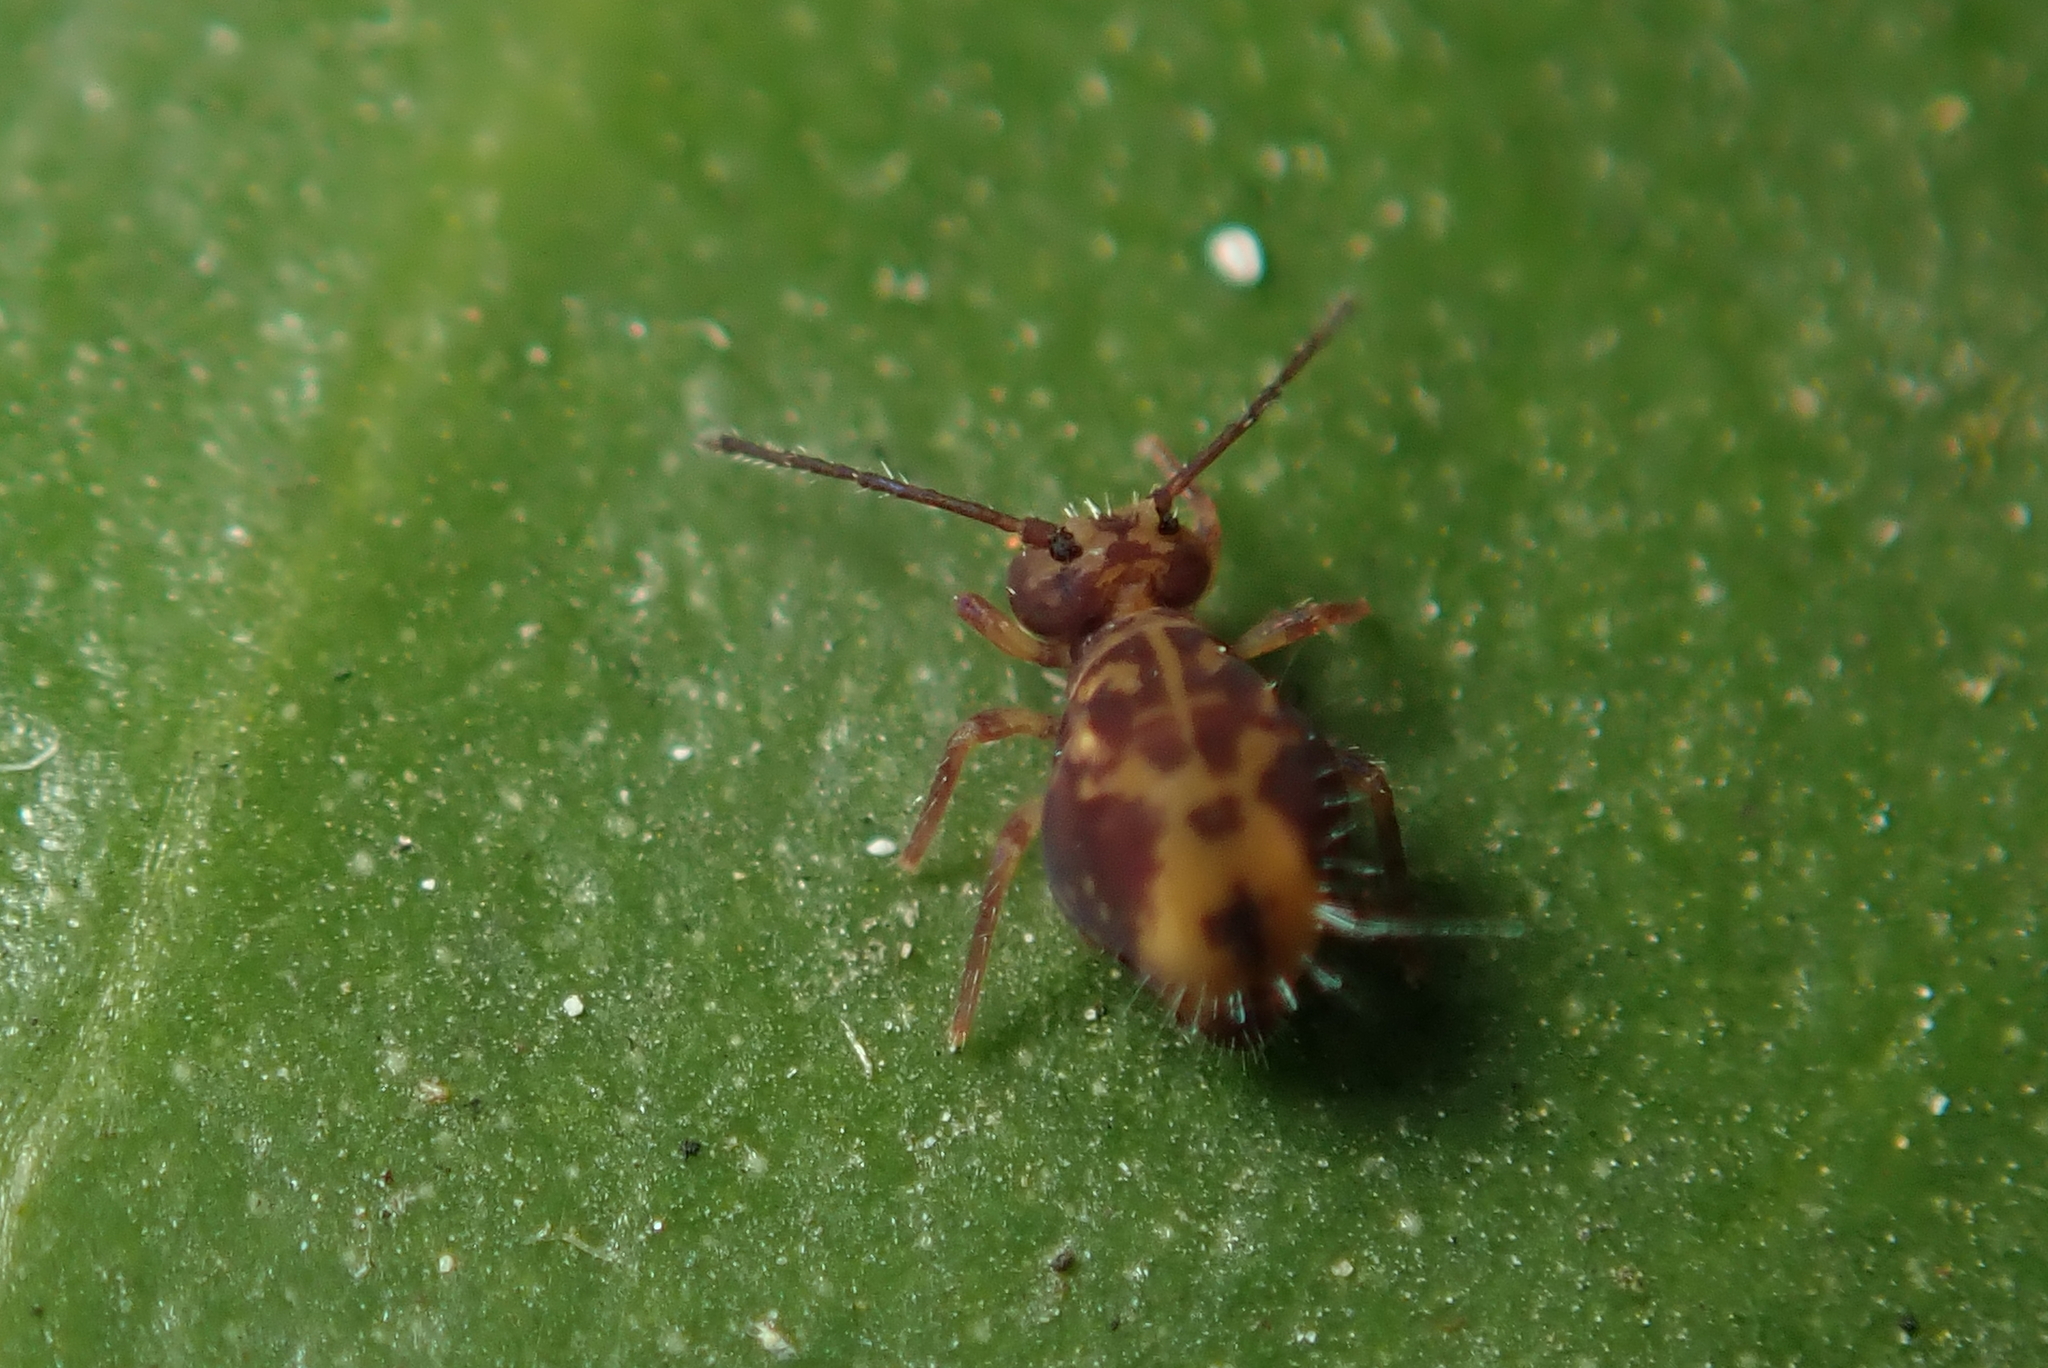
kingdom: Animalia
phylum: Arthropoda
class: Collembola
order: Symphypleona
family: Dicyrtomidae
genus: Dicyrtomina
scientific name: Dicyrtomina ornata
